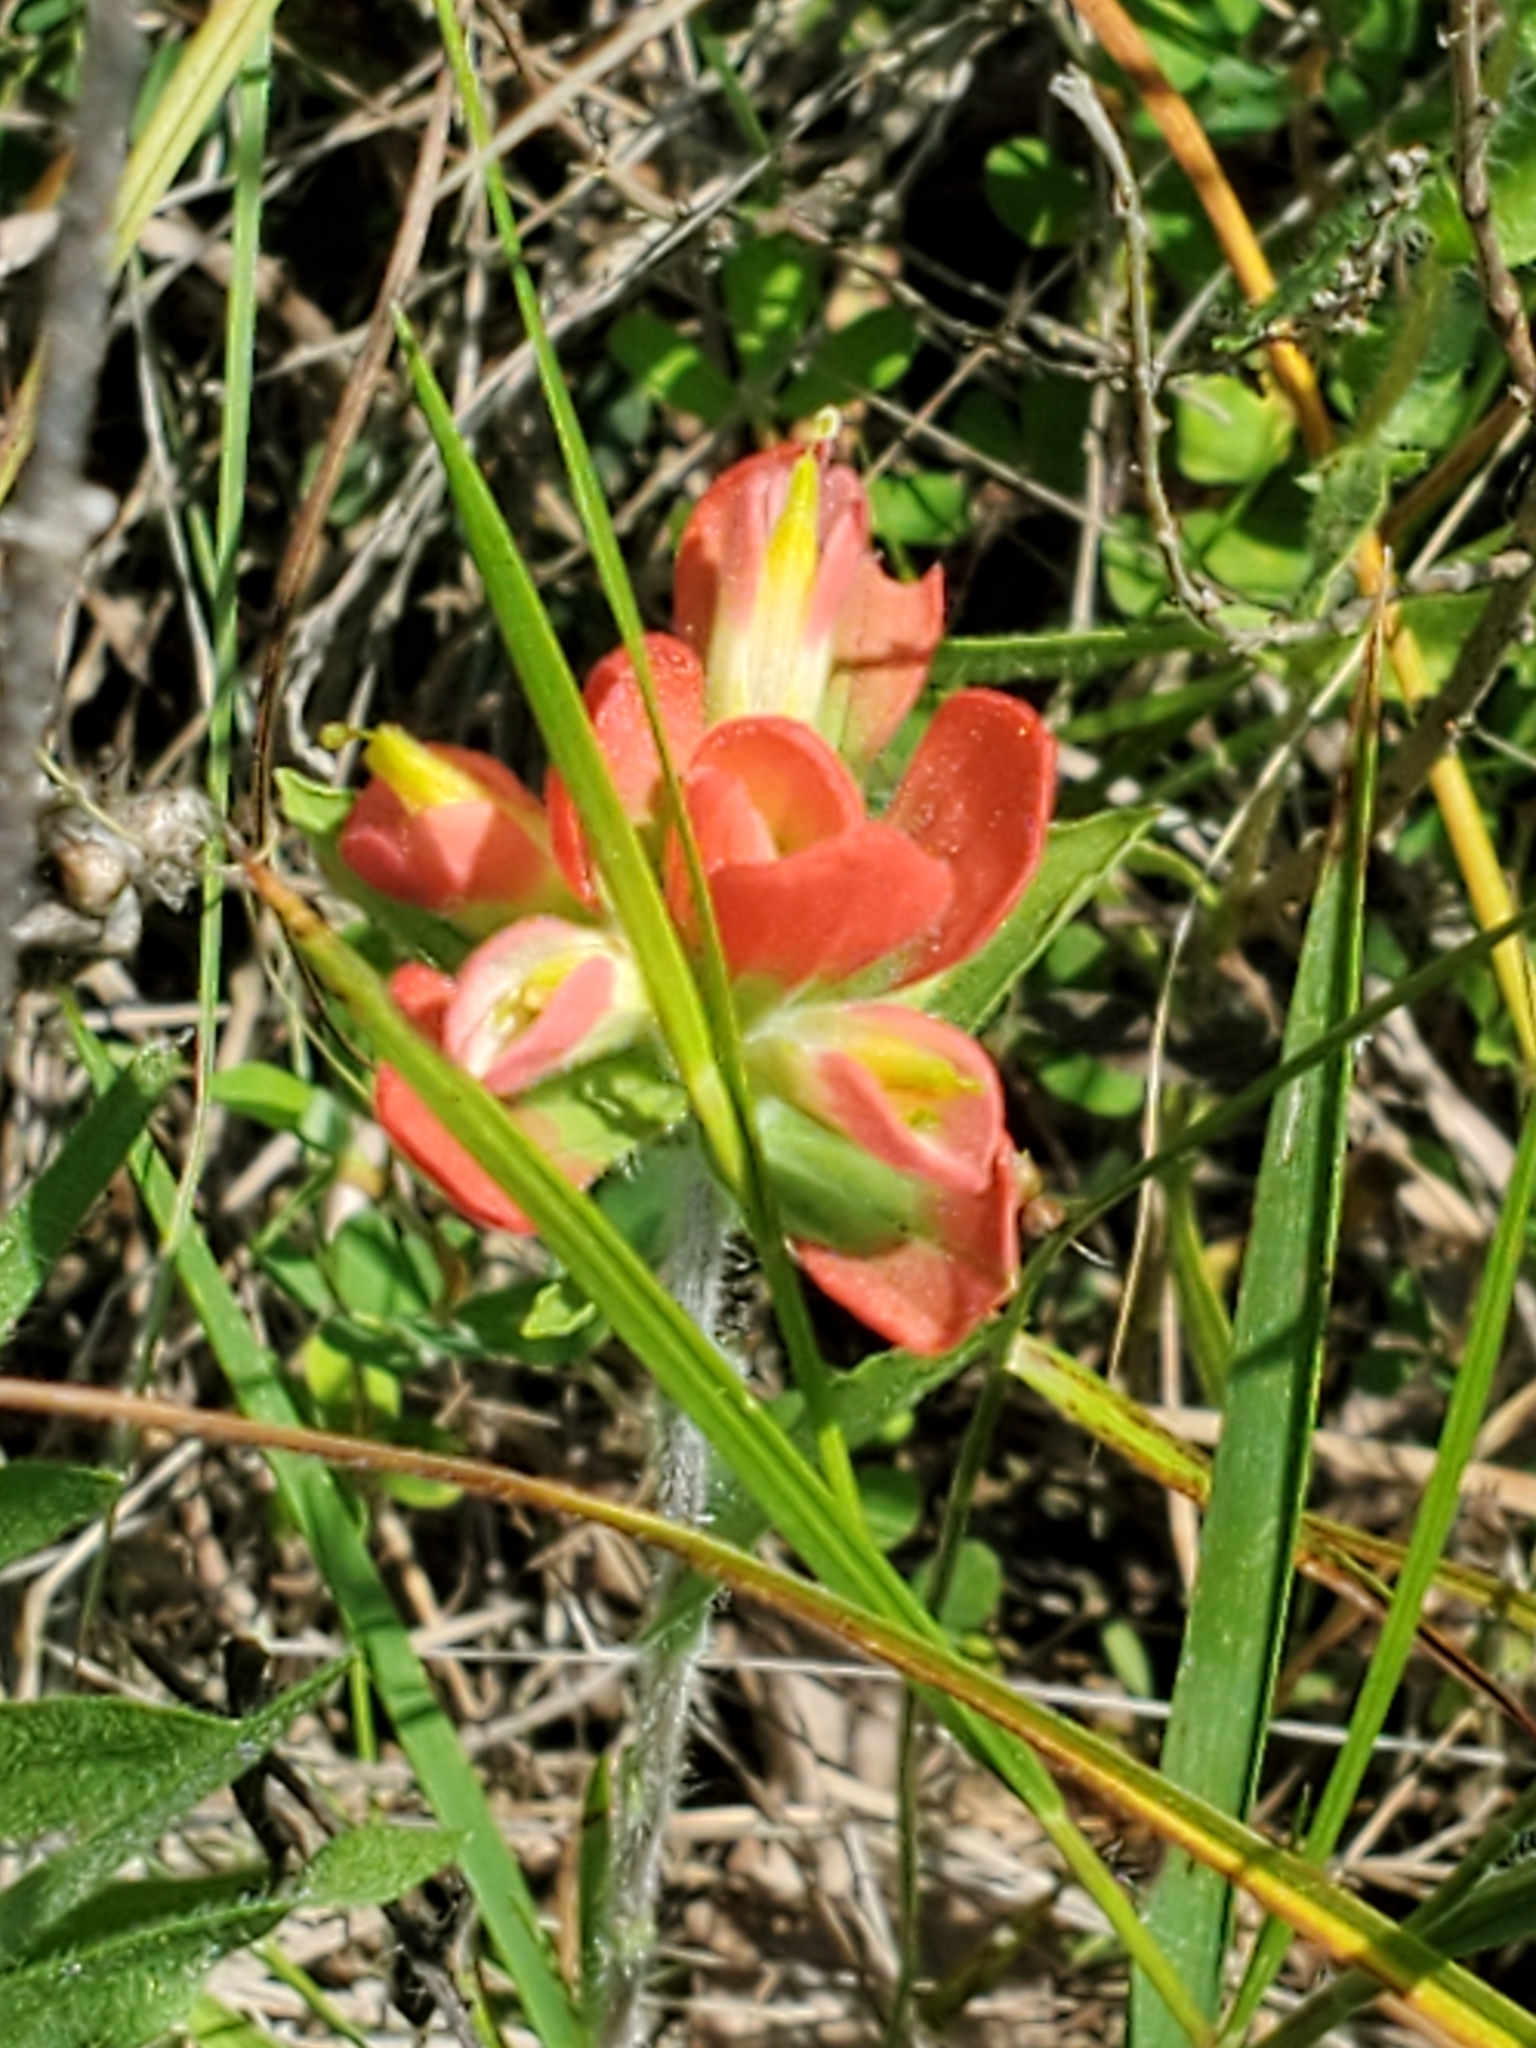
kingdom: Plantae
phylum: Tracheophyta
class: Magnoliopsida
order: Lamiales
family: Orobanchaceae
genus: Castilleja
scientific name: Castilleja indivisa
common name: Texas paintbrush
